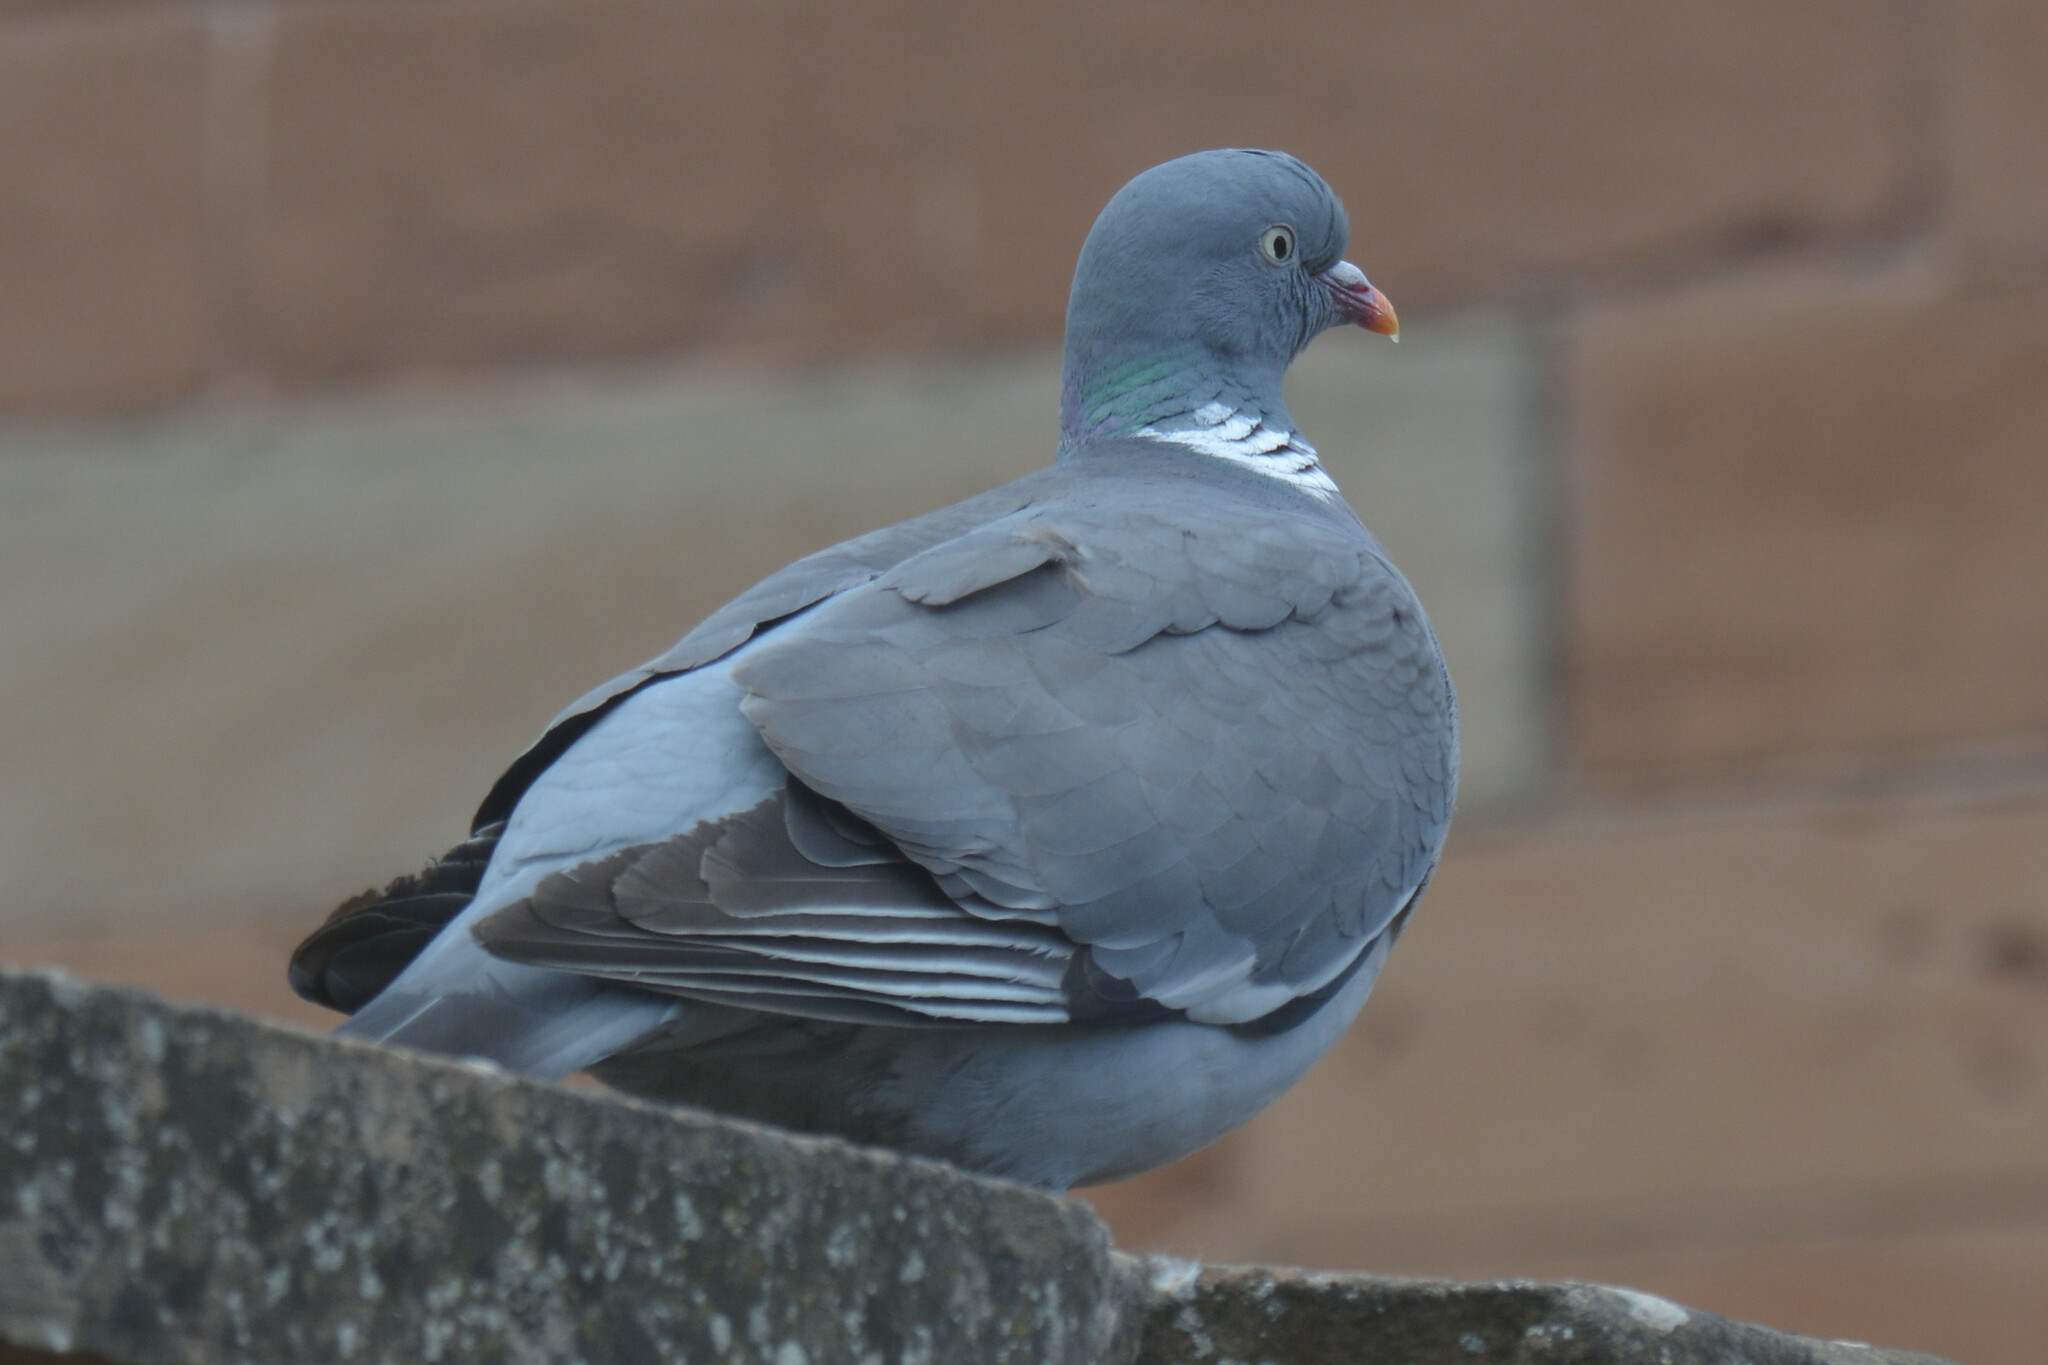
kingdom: Animalia
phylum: Chordata
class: Aves
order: Columbiformes
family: Columbidae
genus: Columba
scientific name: Columba palumbus
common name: Common wood pigeon
